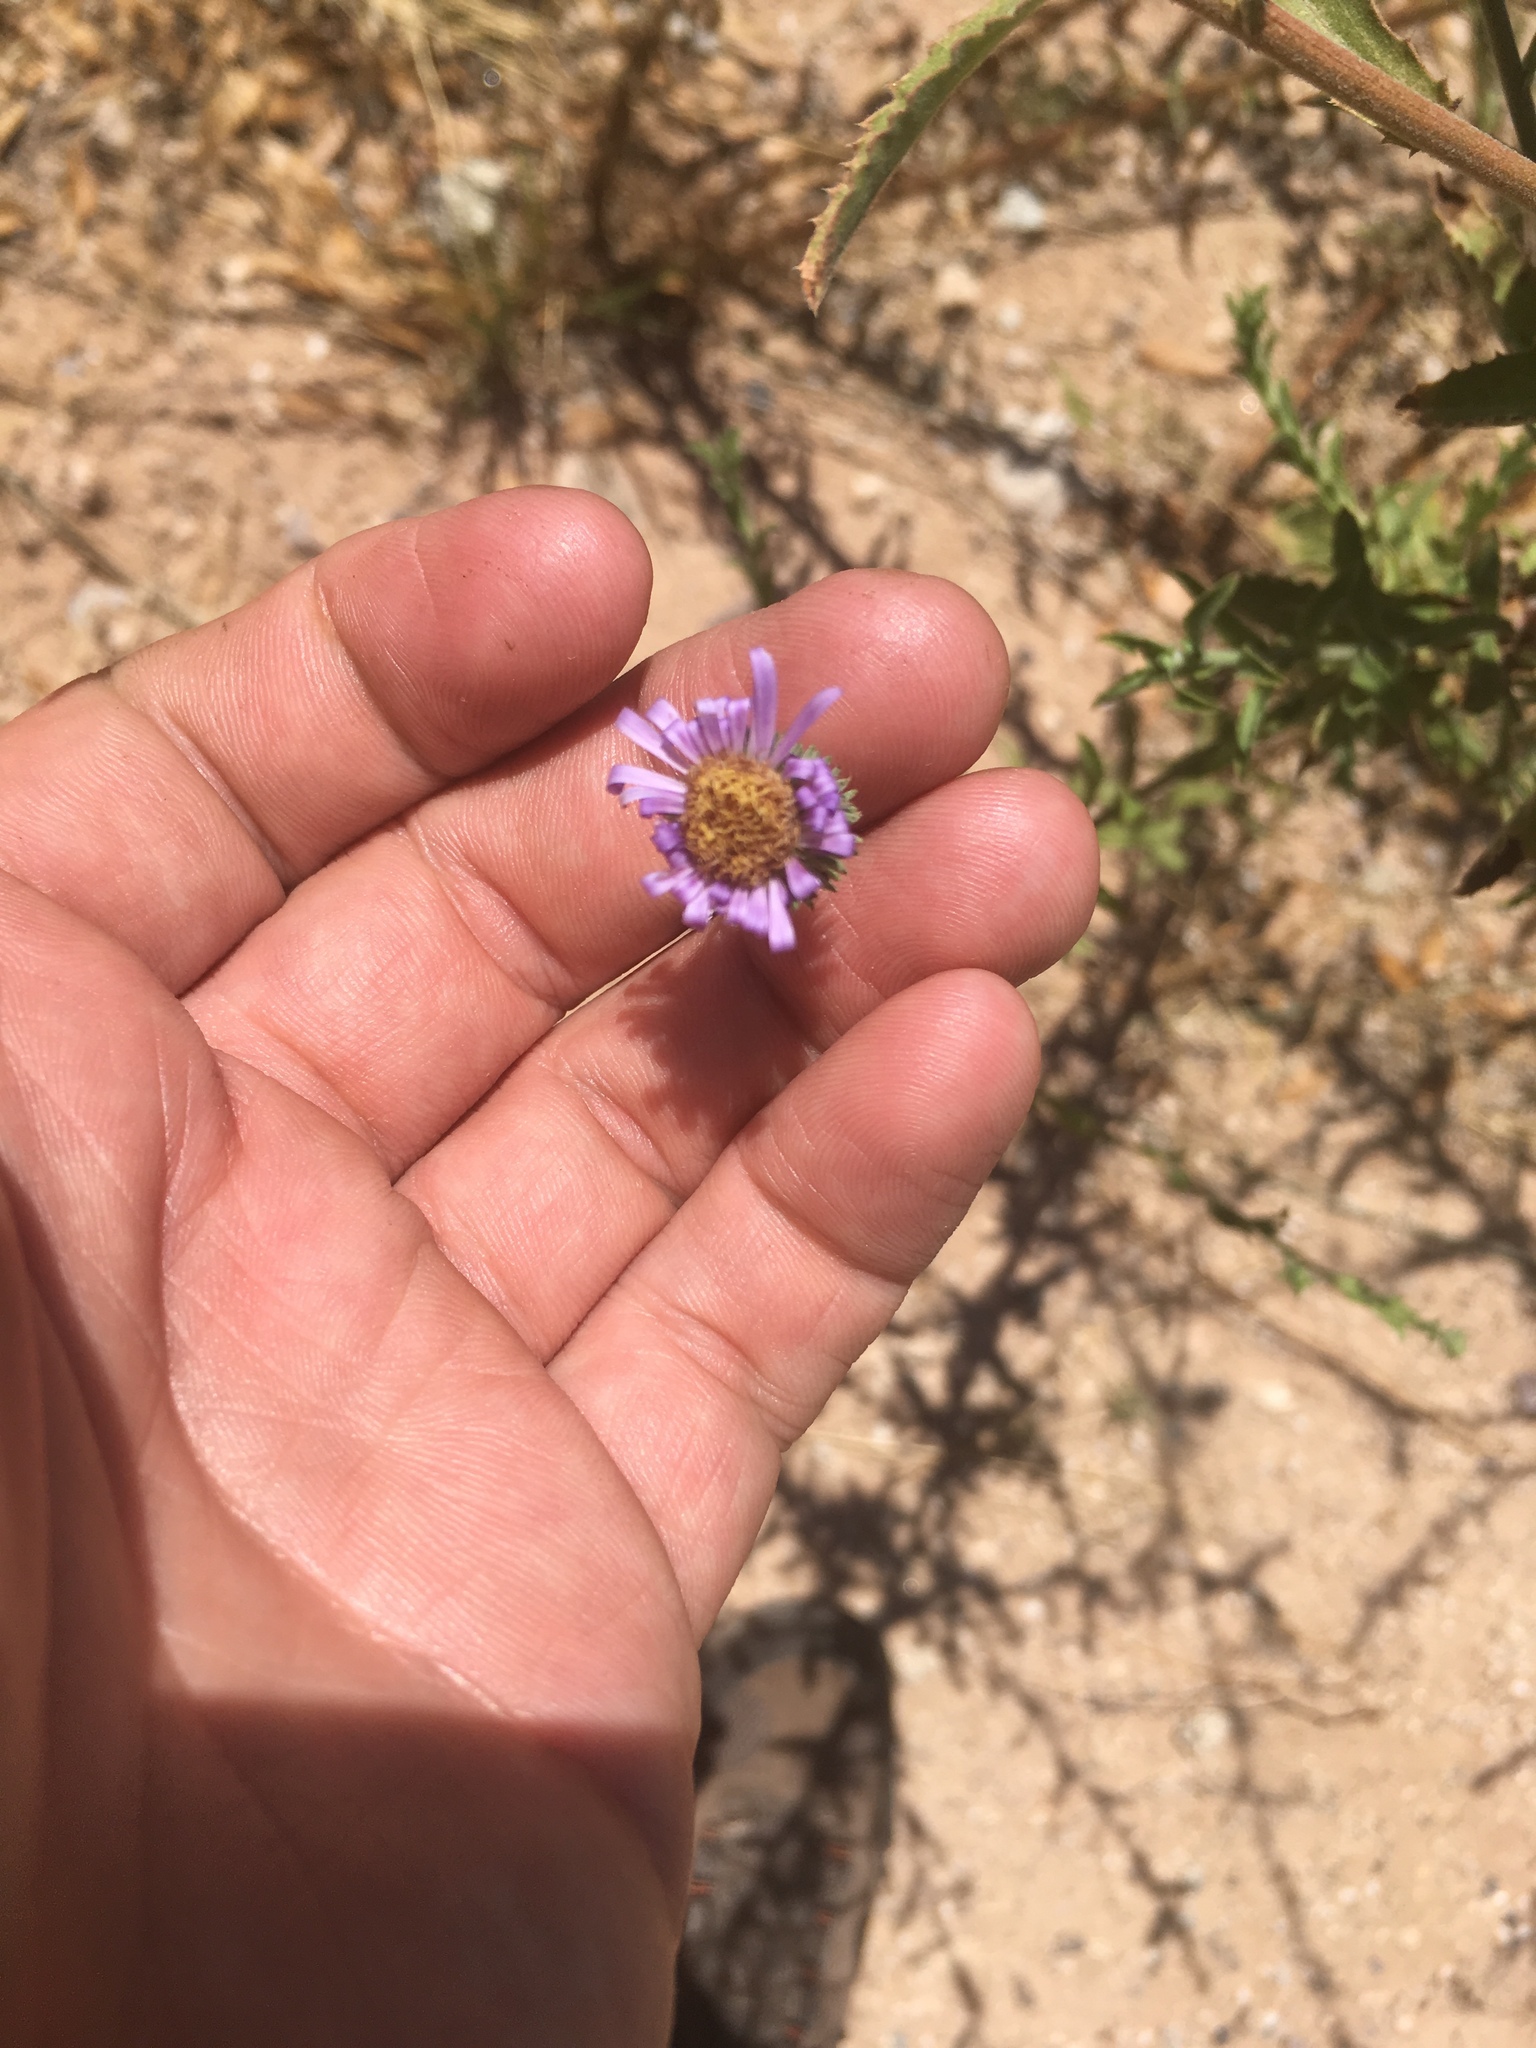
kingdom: Plantae
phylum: Tracheophyta
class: Magnoliopsida
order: Asterales
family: Asteraceae
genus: Dieteria
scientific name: Dieteria asteroides
